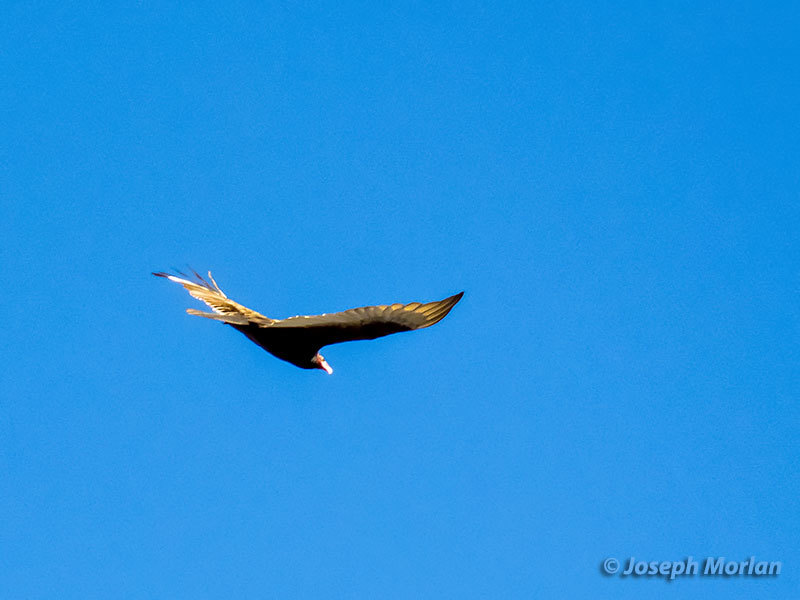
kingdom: Animalia
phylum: Chordata
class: Aves
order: Accipitriformes
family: Cathartidae
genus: Cathartes
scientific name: Cathartes aura
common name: Turkey vulture
